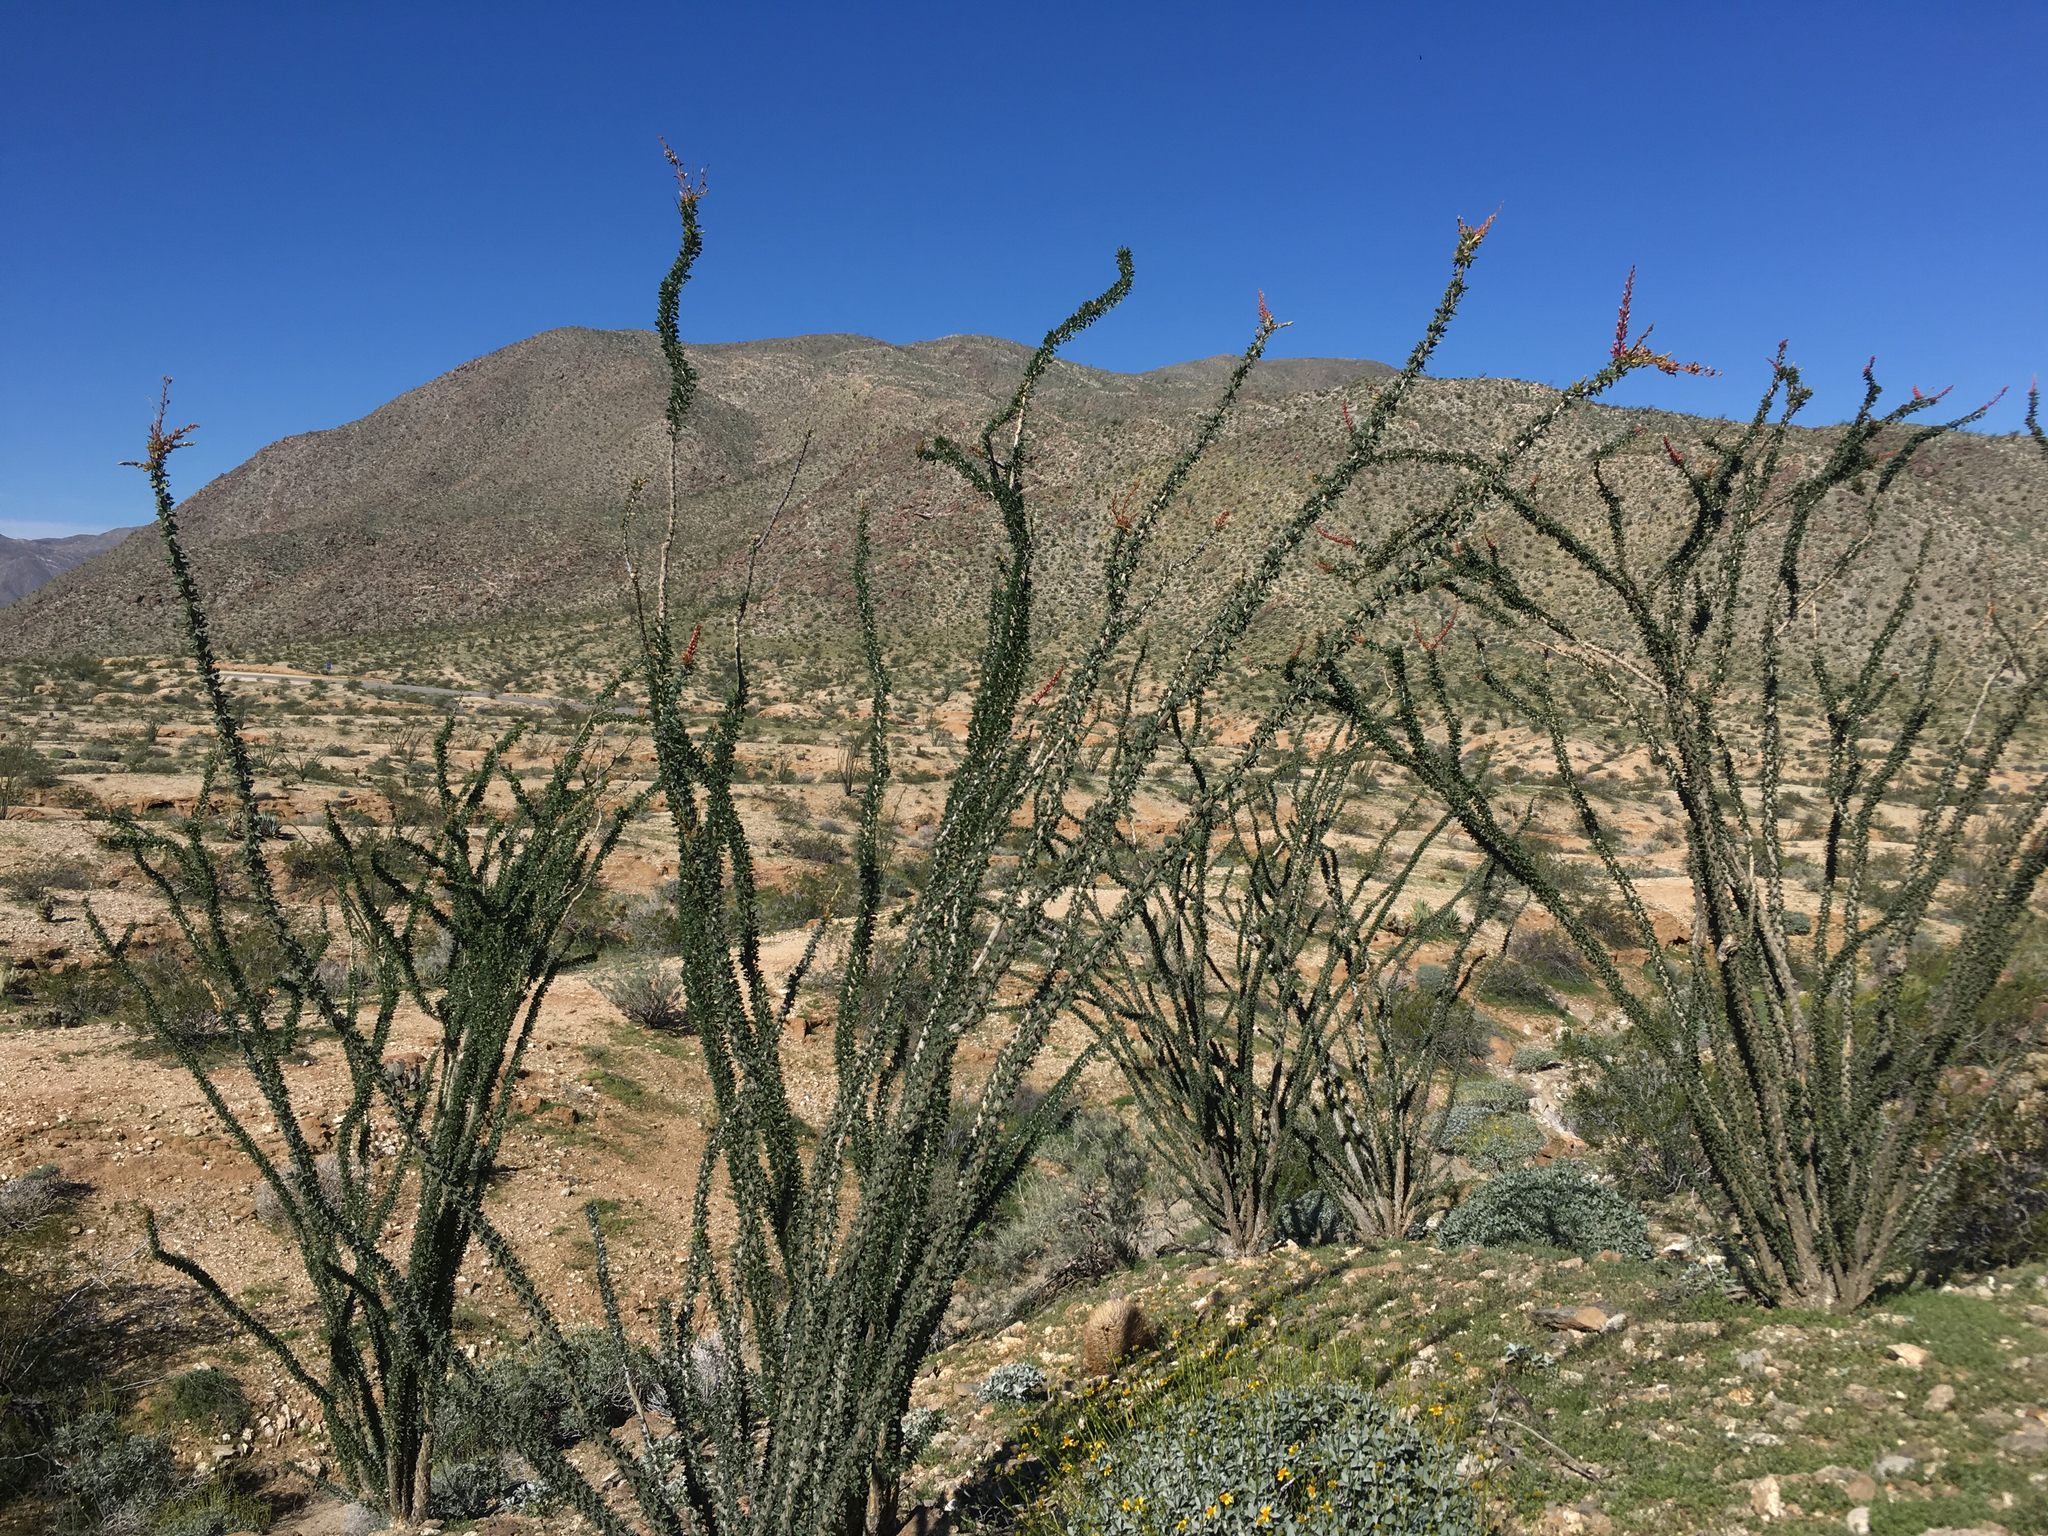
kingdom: Plantae
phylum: Tracheophyta
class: Magnoliopsida
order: Ericales
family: Fouquieriaceae
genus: Fouquieria
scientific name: Fouquieria splendens
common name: Vine-cactus
